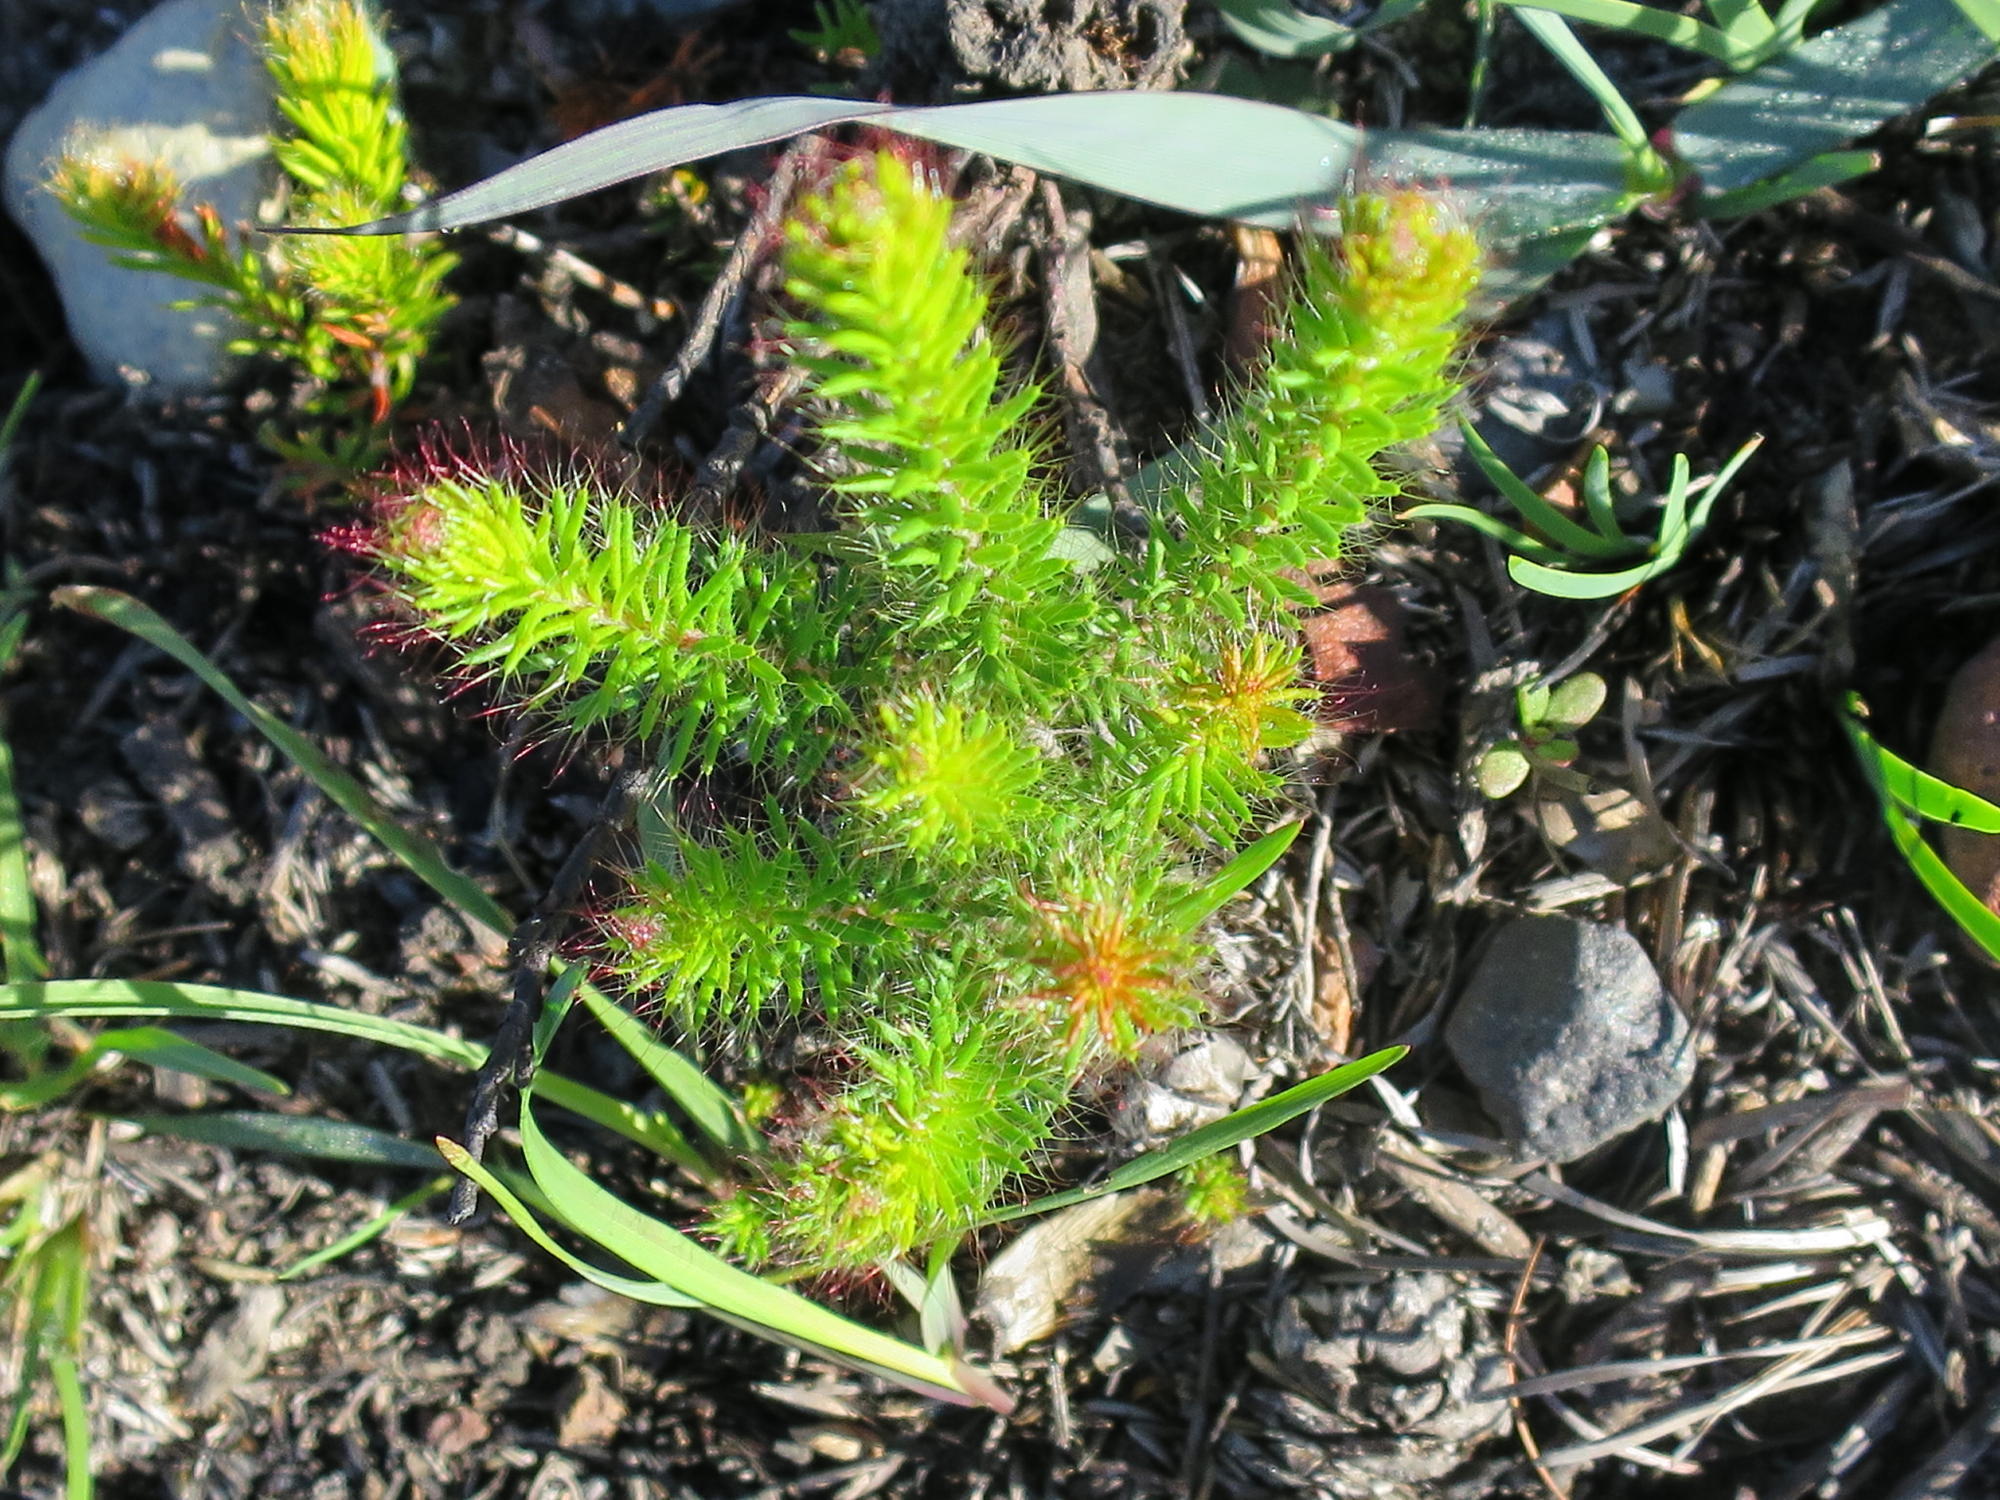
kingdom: Plantae
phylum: Tracheophyta
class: Magnoliopsida
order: Ericales
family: Ericaceae
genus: Erica
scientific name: Erica cerinthoides
